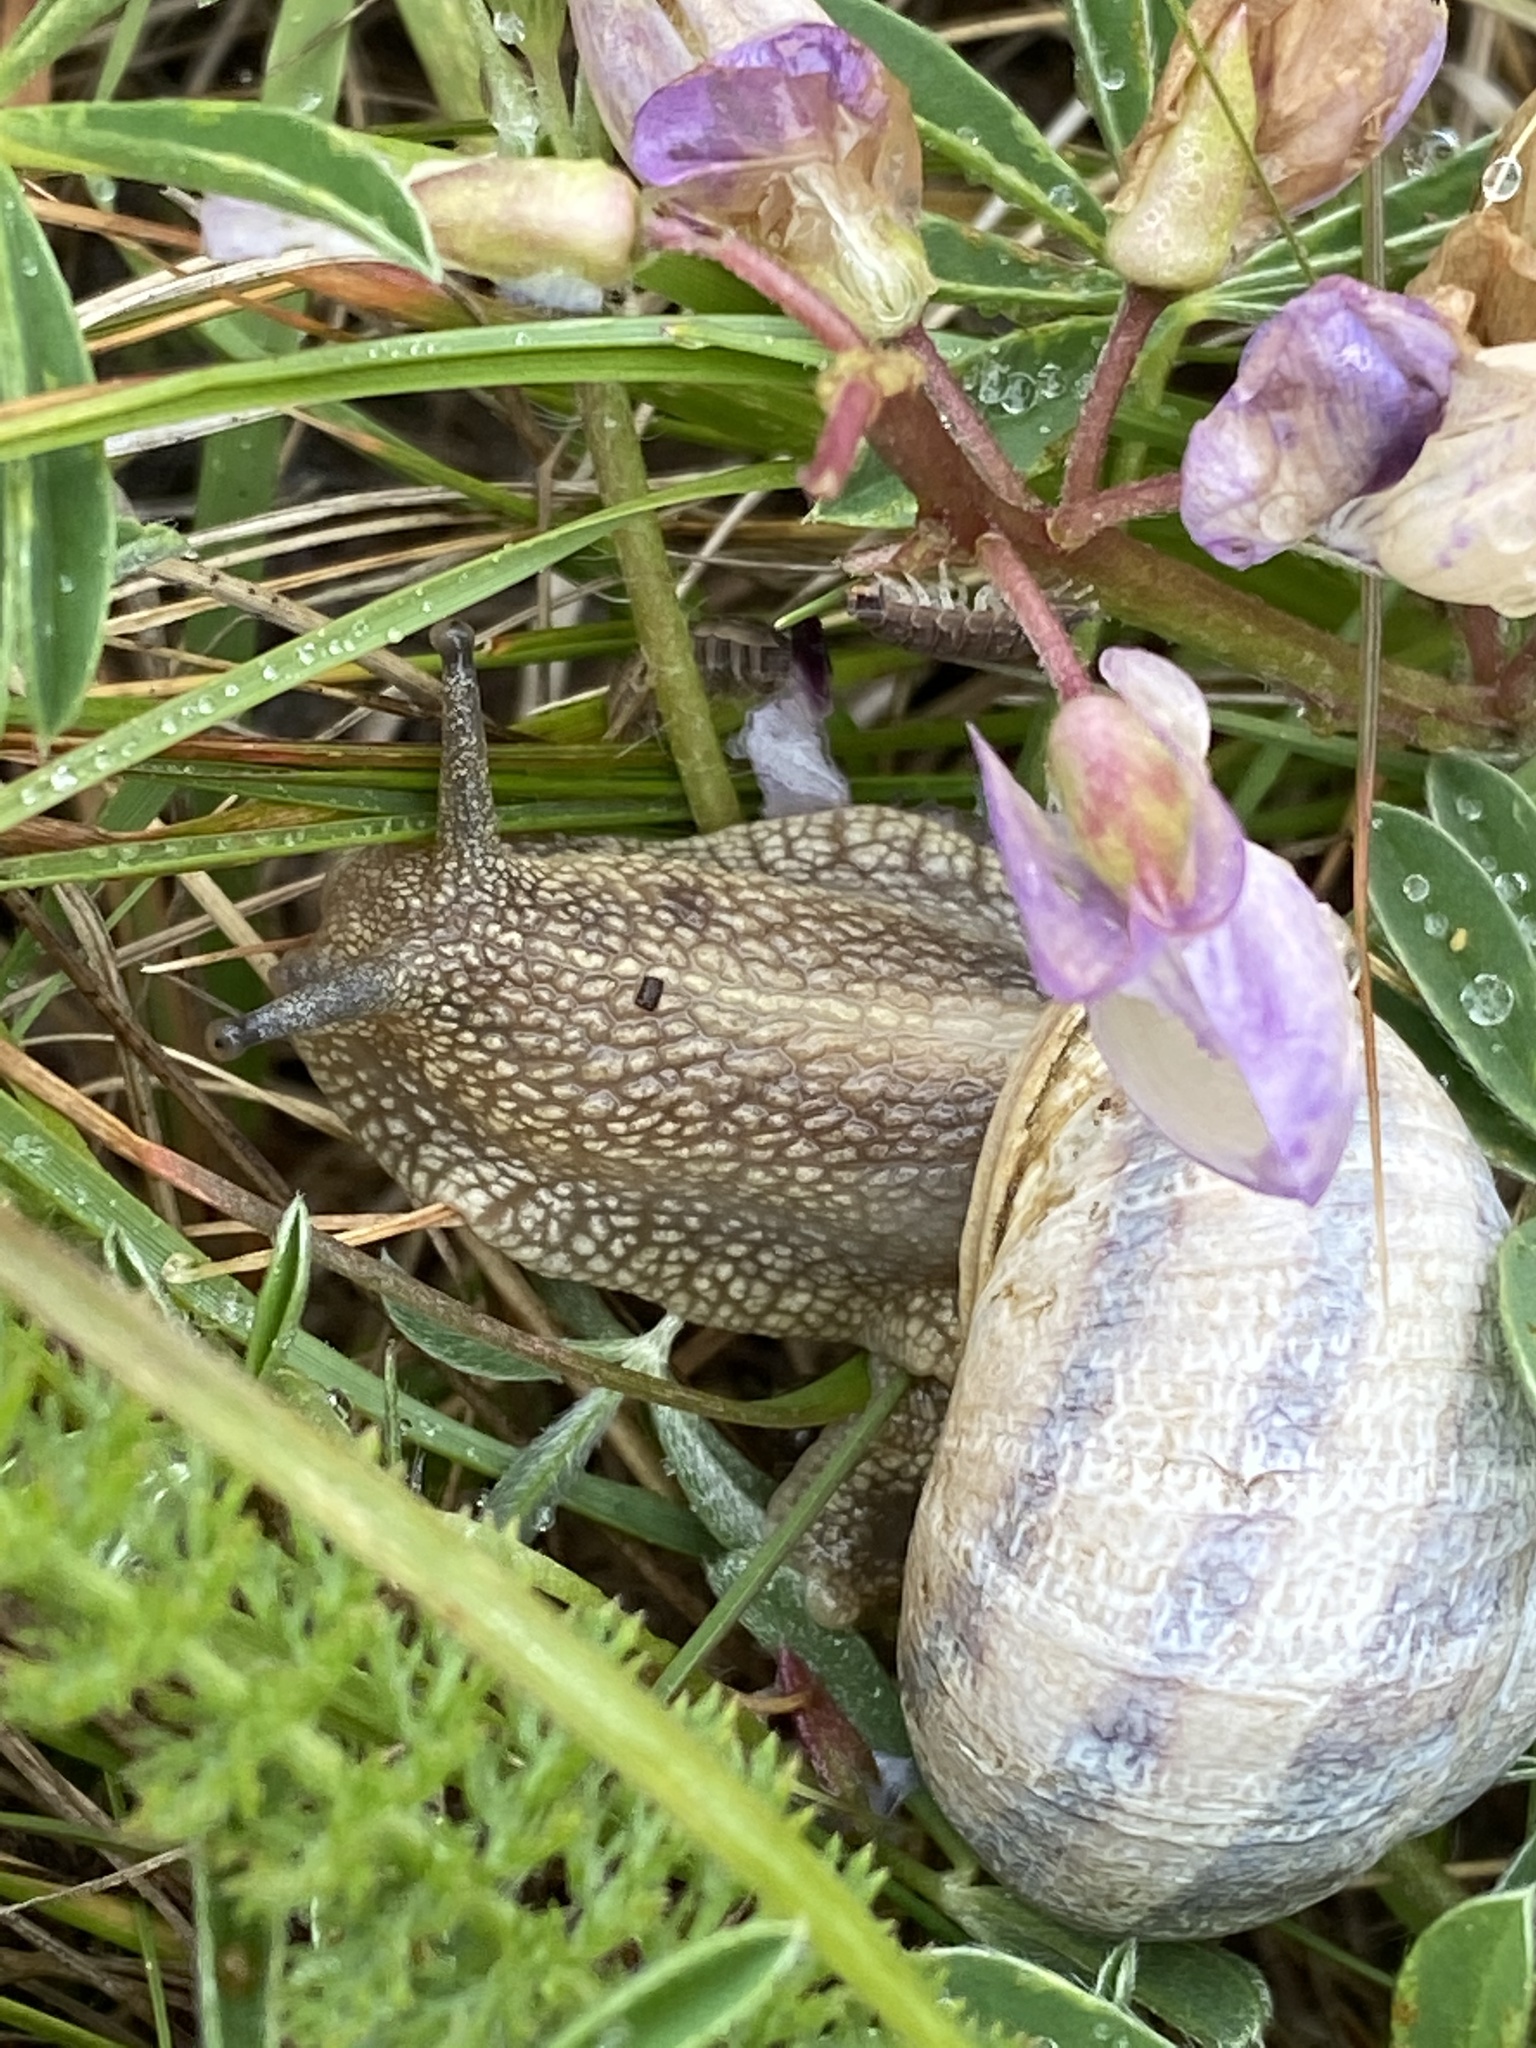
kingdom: Animalia
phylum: Mollusca
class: Gastropoda
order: Stylommatophora
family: Helicidae
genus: Cornu
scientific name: Cornu aspersum
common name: Brown garden snail
